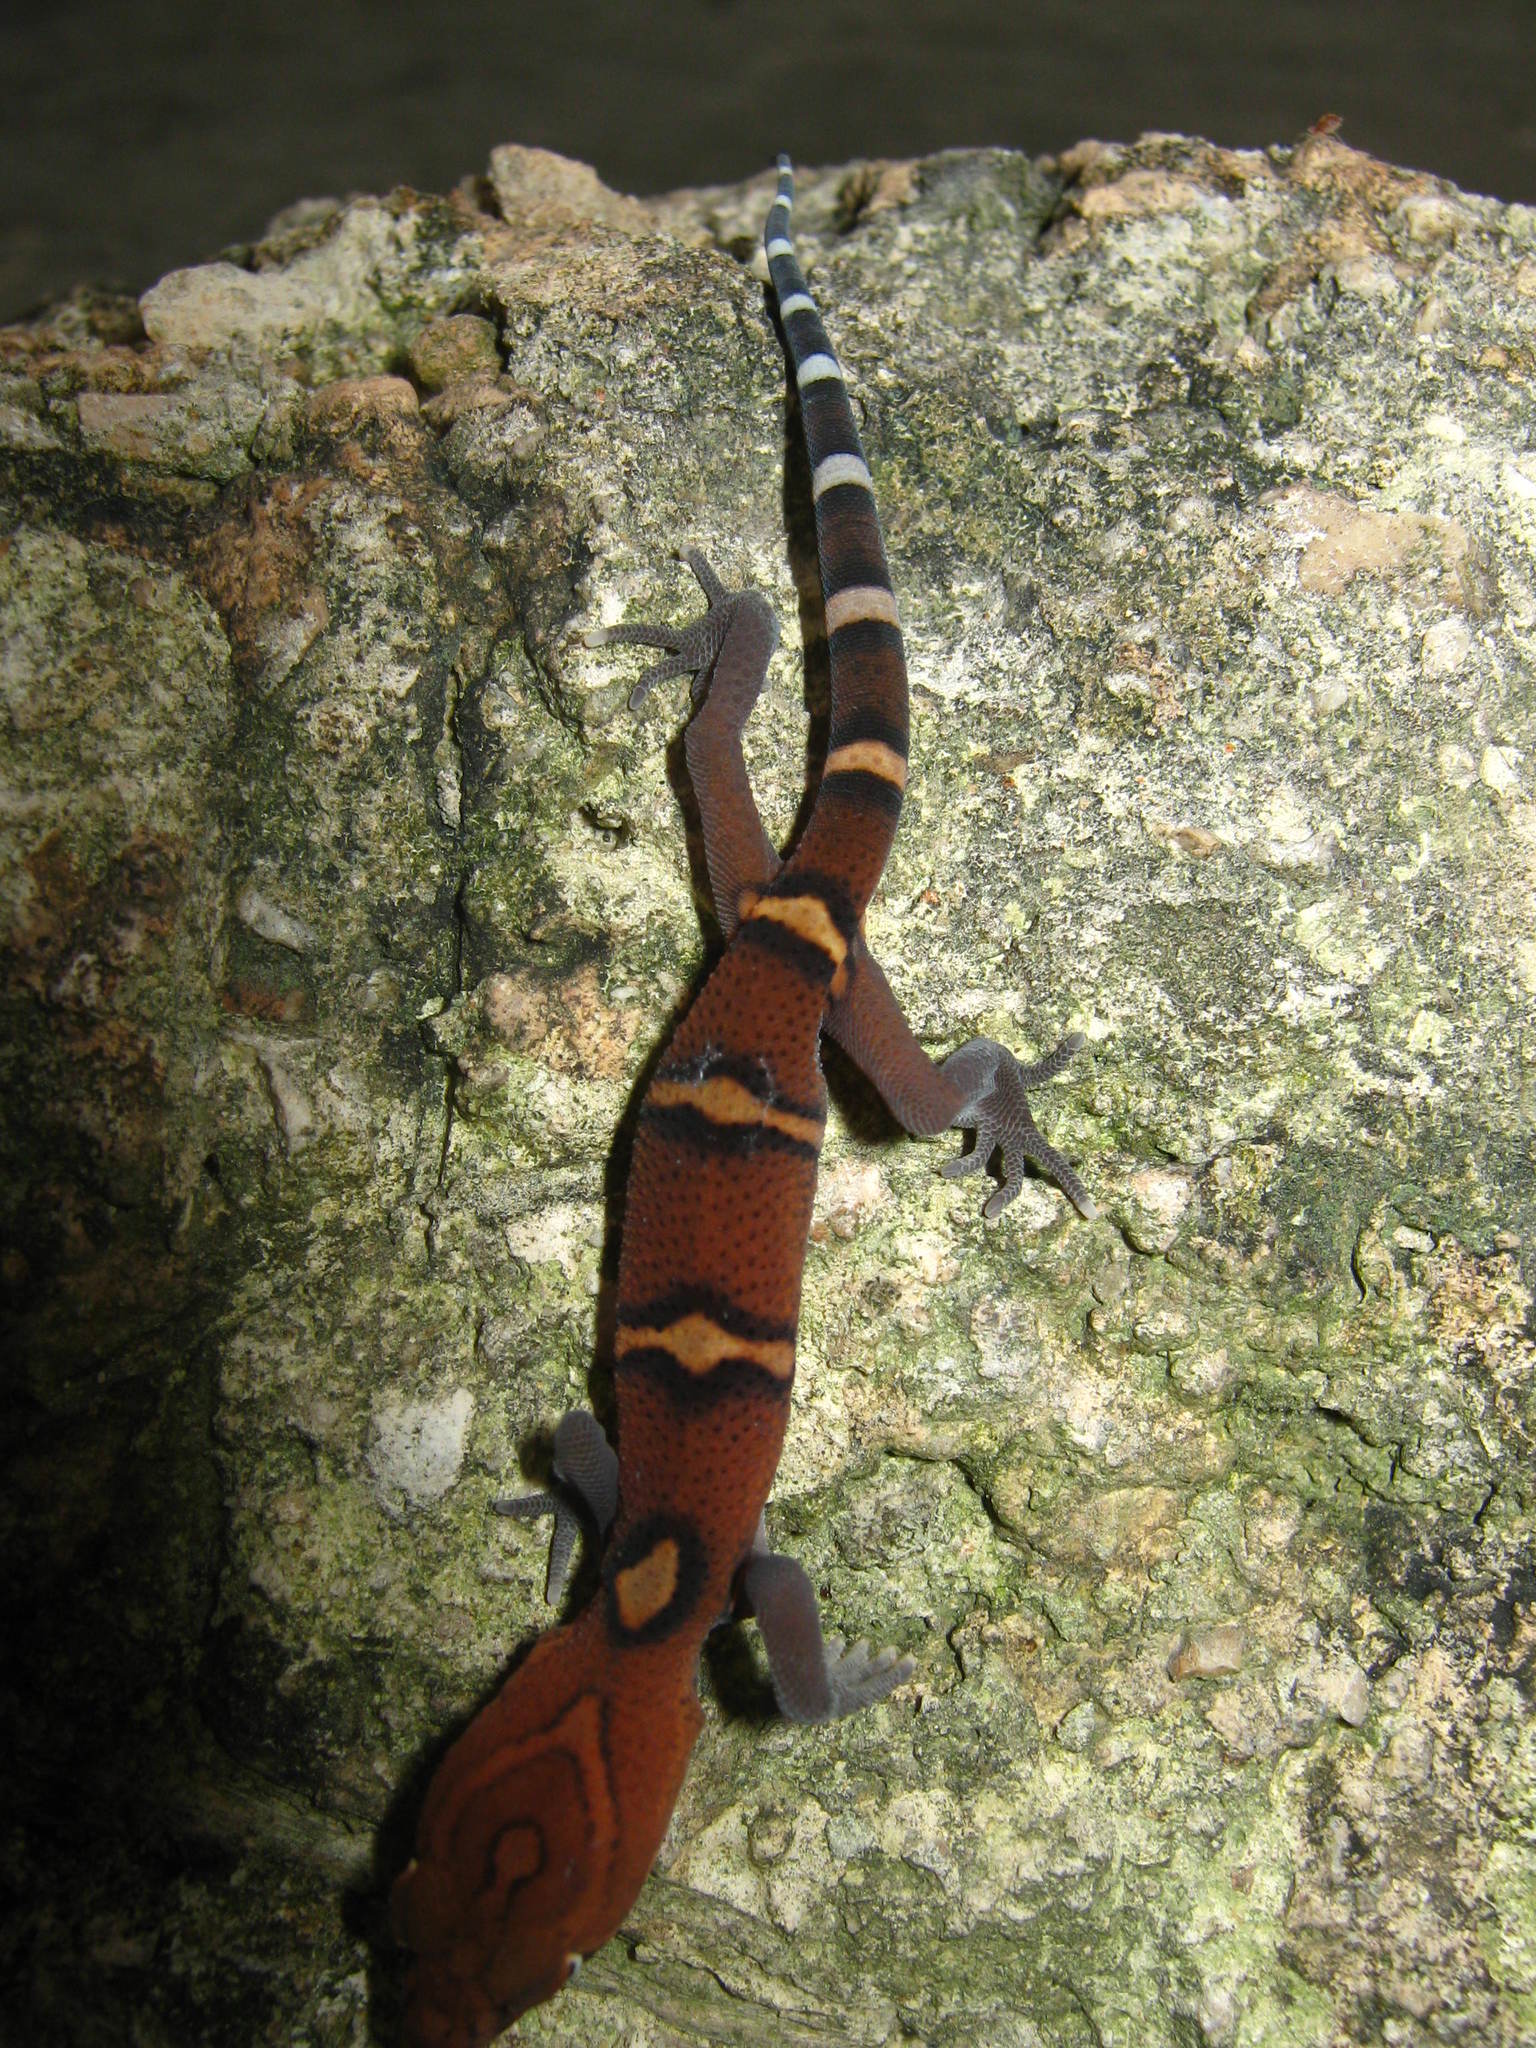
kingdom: Animalia
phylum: Chordata
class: Squamata
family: Eublepharidae
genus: Coleonyx
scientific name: Coleonyx elegans
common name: Yucatan banded gecko
